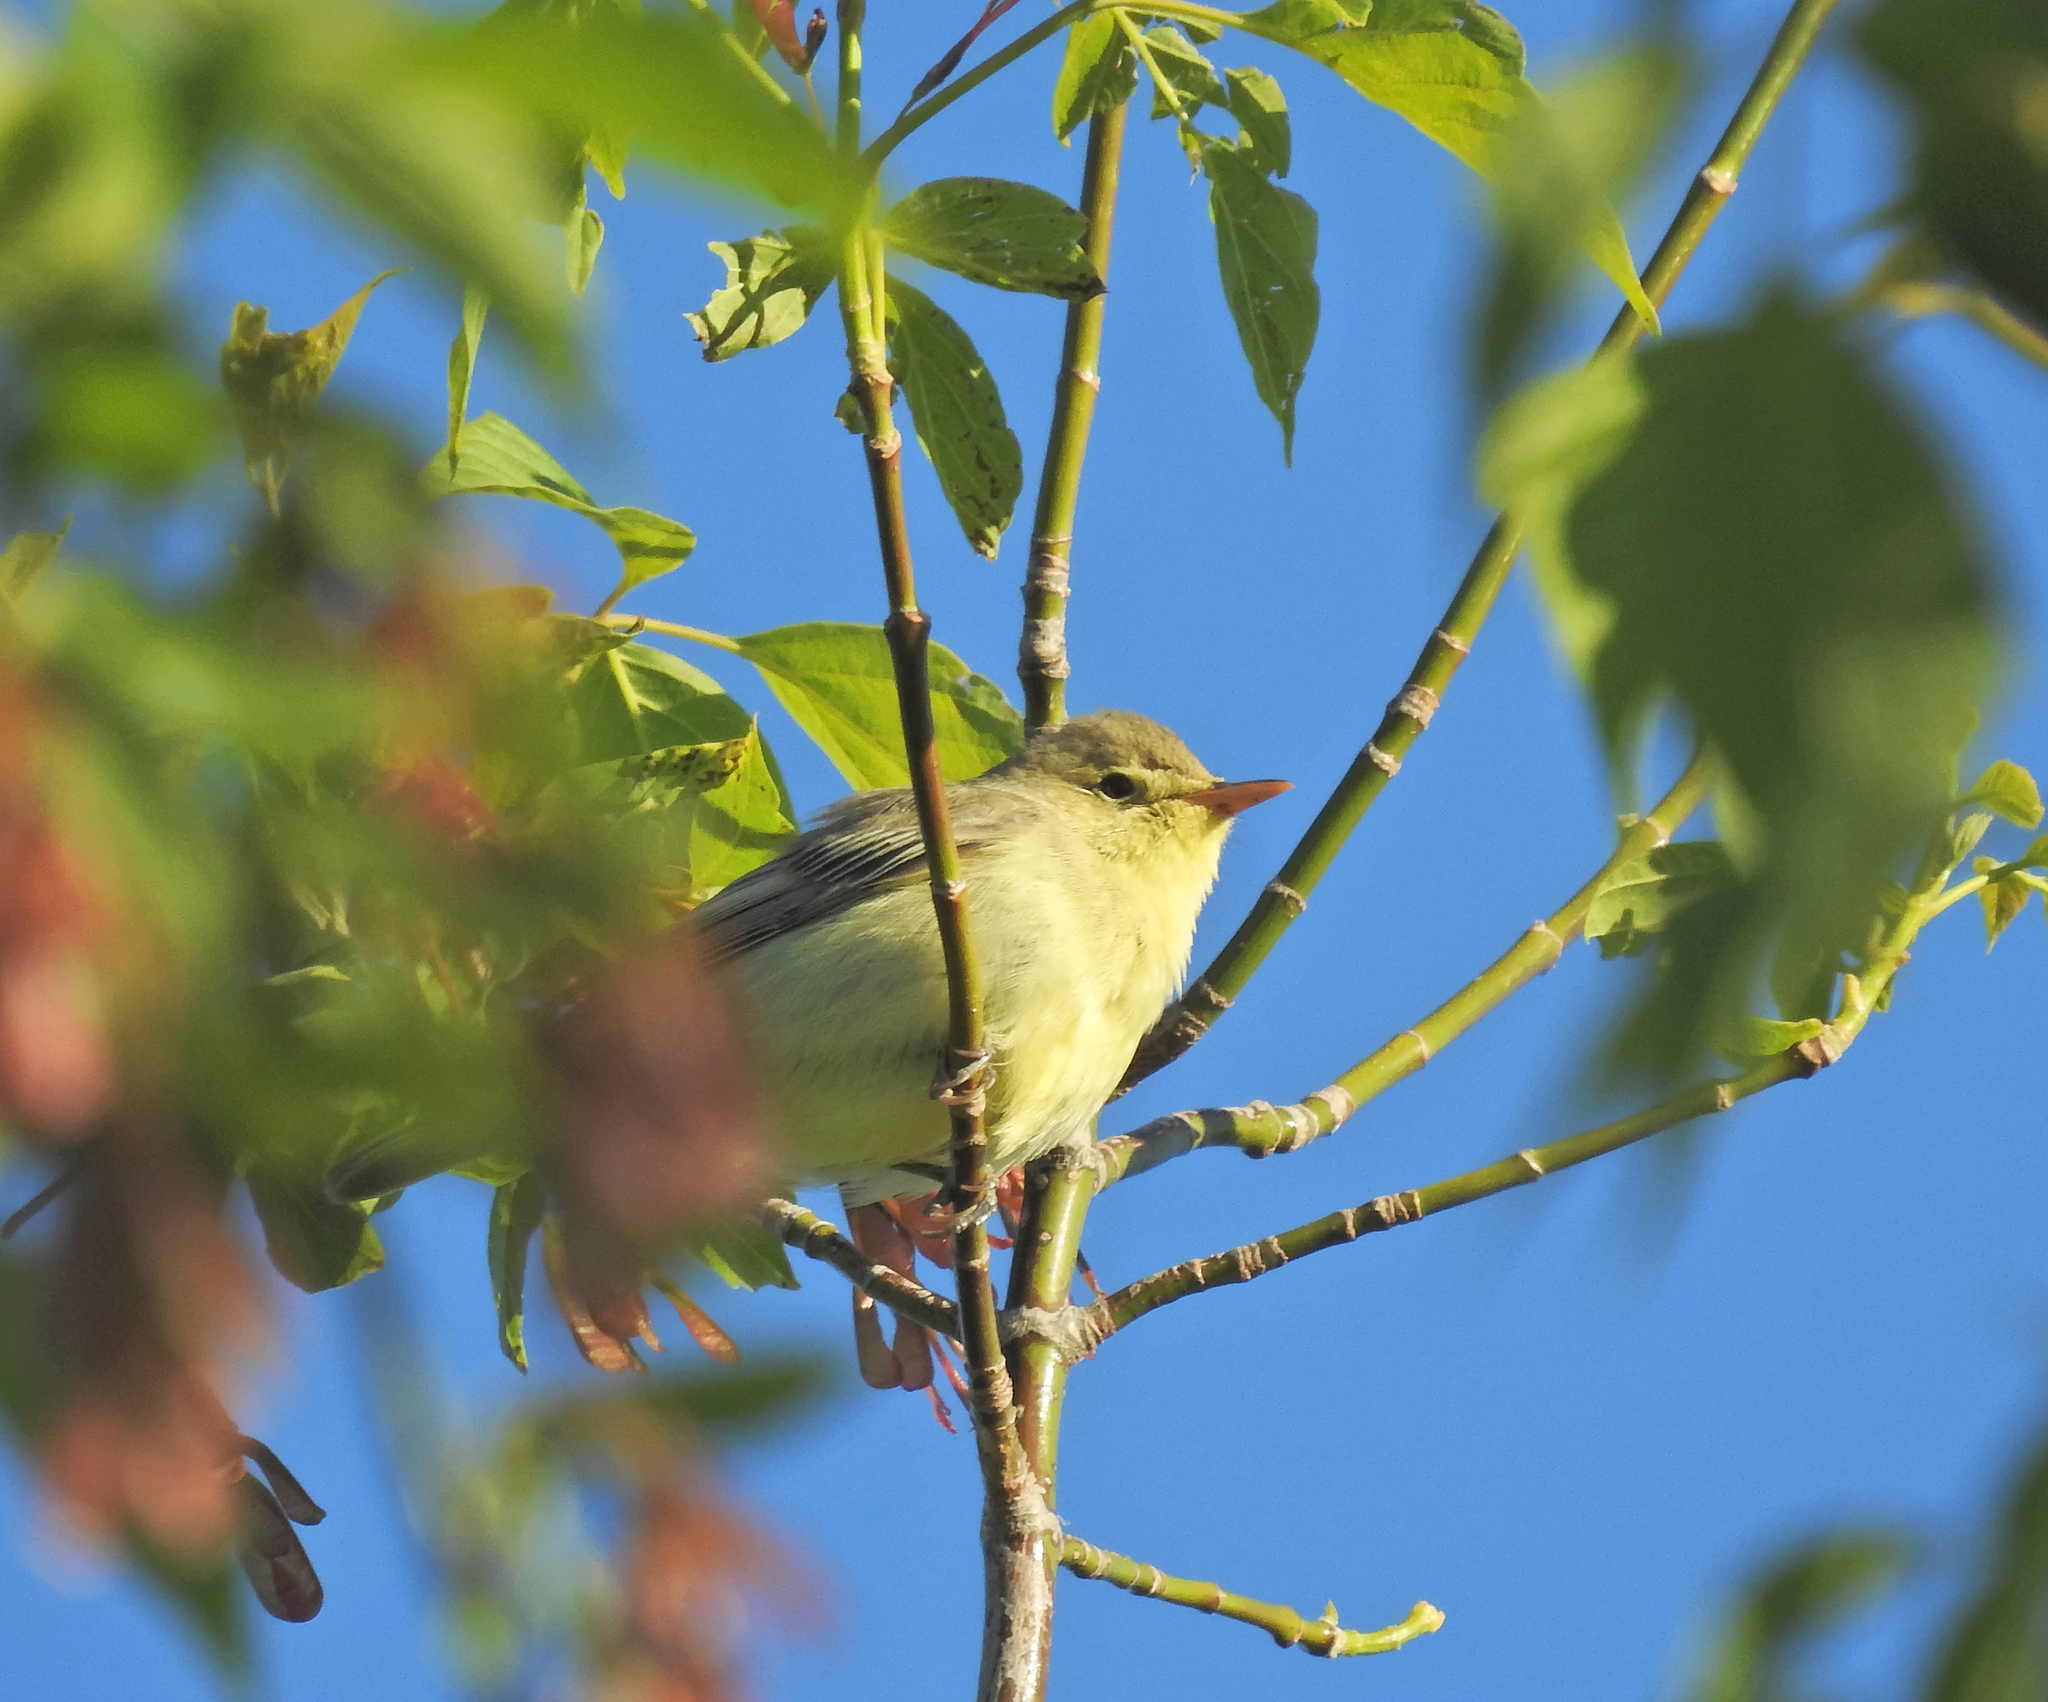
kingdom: Animalia
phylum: Chordata
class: Aves
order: Passeriformes
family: Acrocephalidae
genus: Hippolais
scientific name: Hippolais icterina
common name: Icterine warbler
